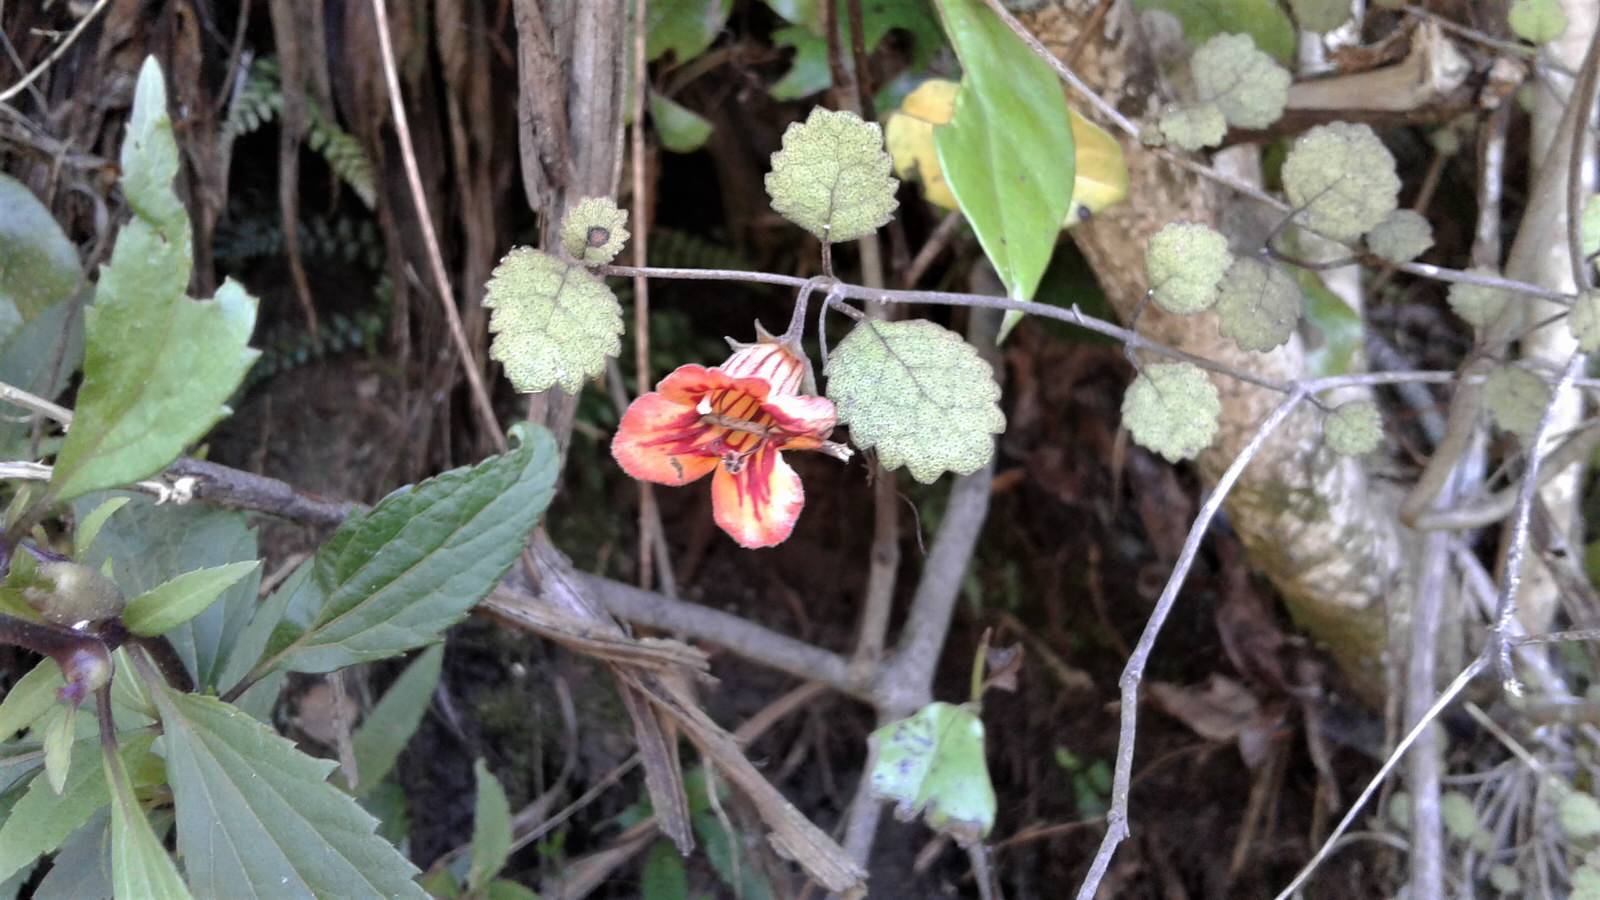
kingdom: Plantae
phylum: Tracheophyta
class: Magnoliopsida
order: Lamiales
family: Gesneriaceae
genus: Rhabdothamnus
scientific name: Rhabdothamnus solandri
